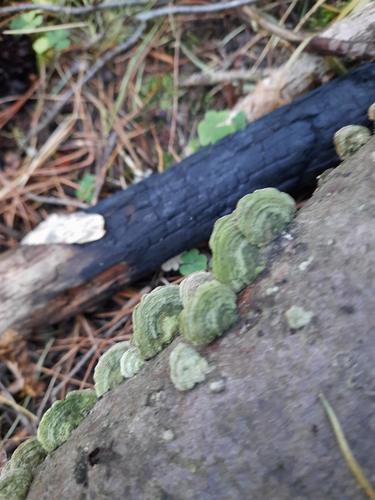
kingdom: Fungi
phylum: Basidiomycota
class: Agaricomycetes
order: Polyporales
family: Polyporaceae
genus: Trametes
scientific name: Trametes hirsuta
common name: Hairy bracket
